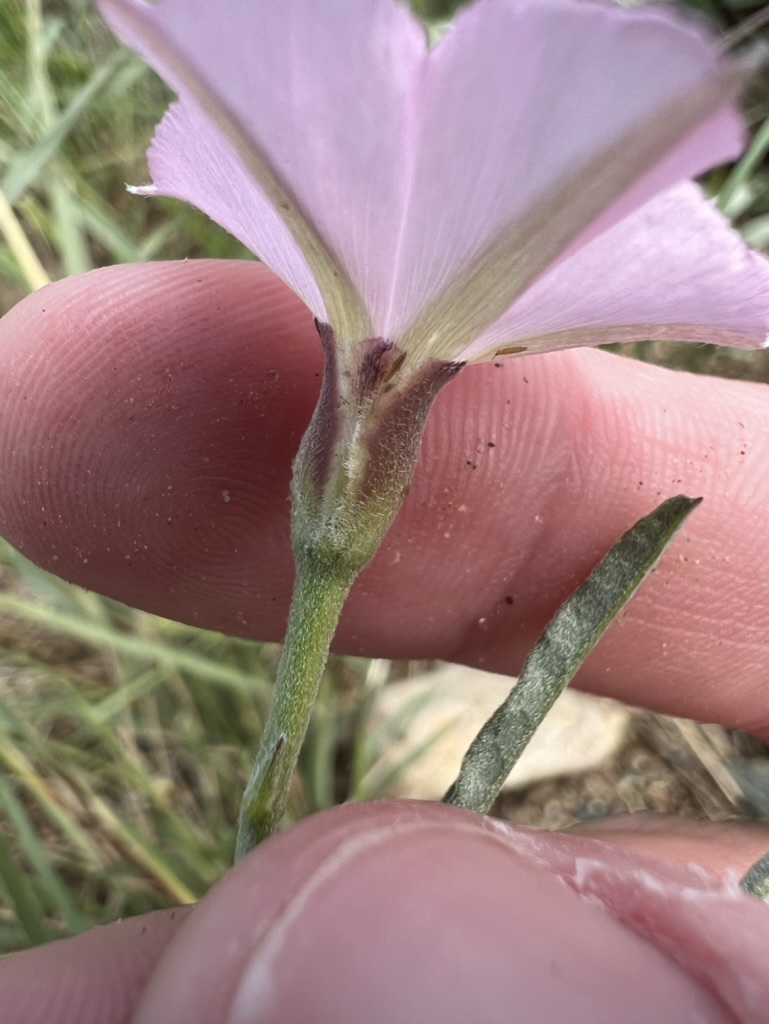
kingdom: Plantae
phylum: Tracheophyta
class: Magnoliopsida
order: Solanales
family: Convolvulaceae
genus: Convolvulus
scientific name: Convolvulus equitans
